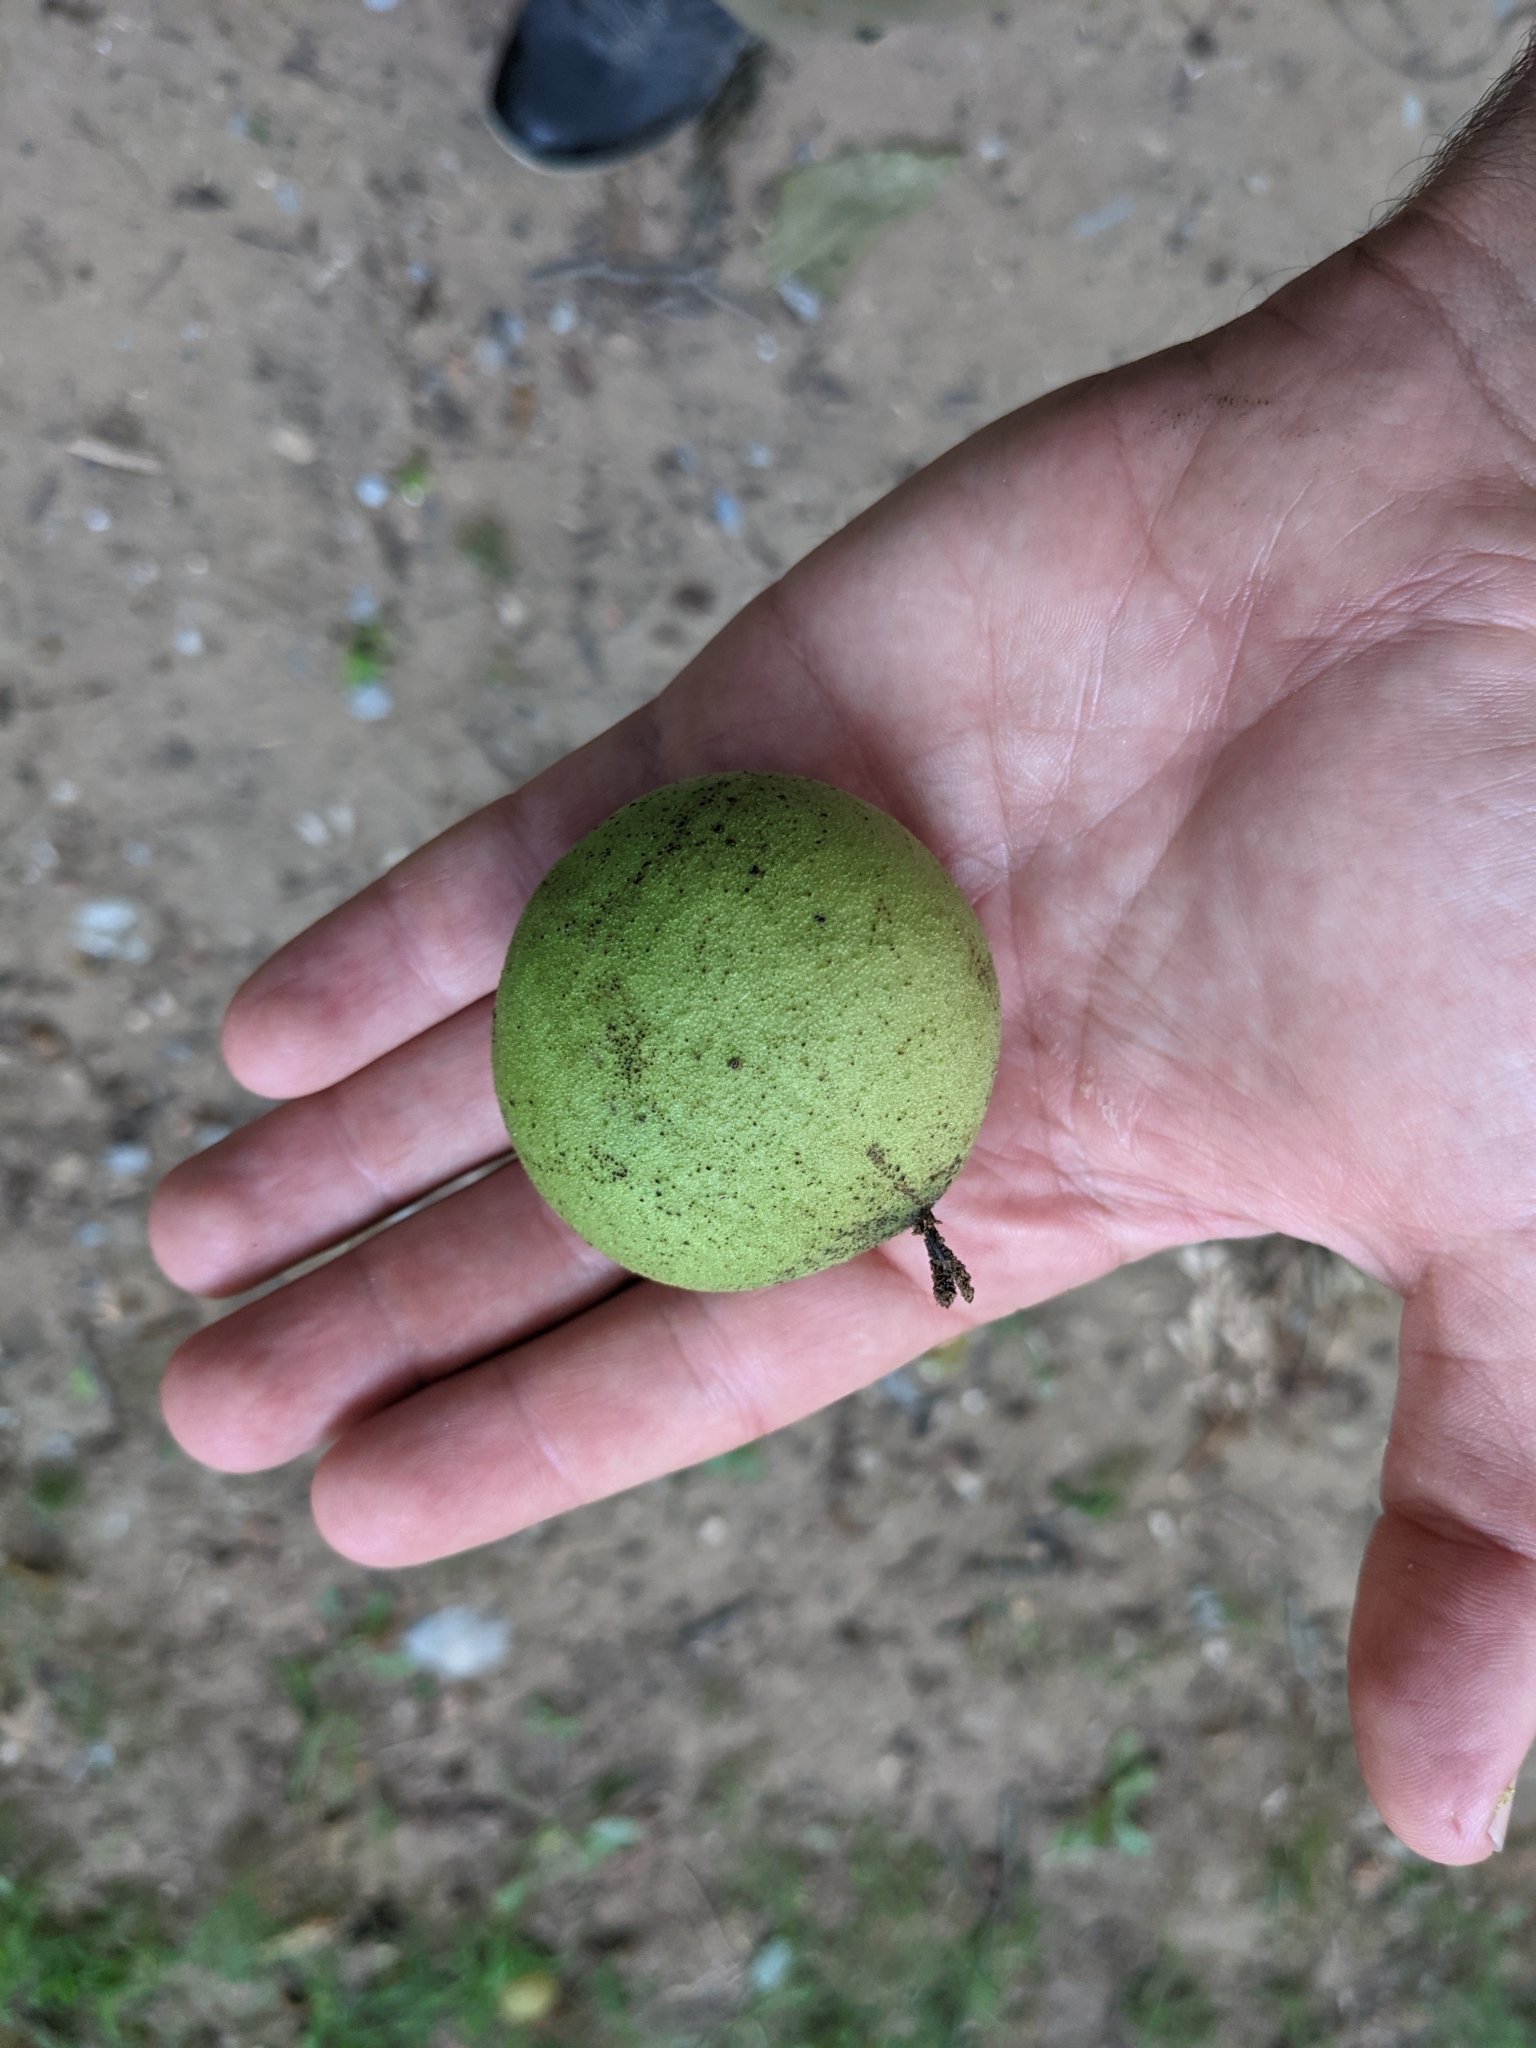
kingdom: Plantae
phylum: Tracheophyta
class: Magnoliopsida
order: Fagales
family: Juglandaceae
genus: Juglans
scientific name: Juglans nigra
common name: Black walnut
